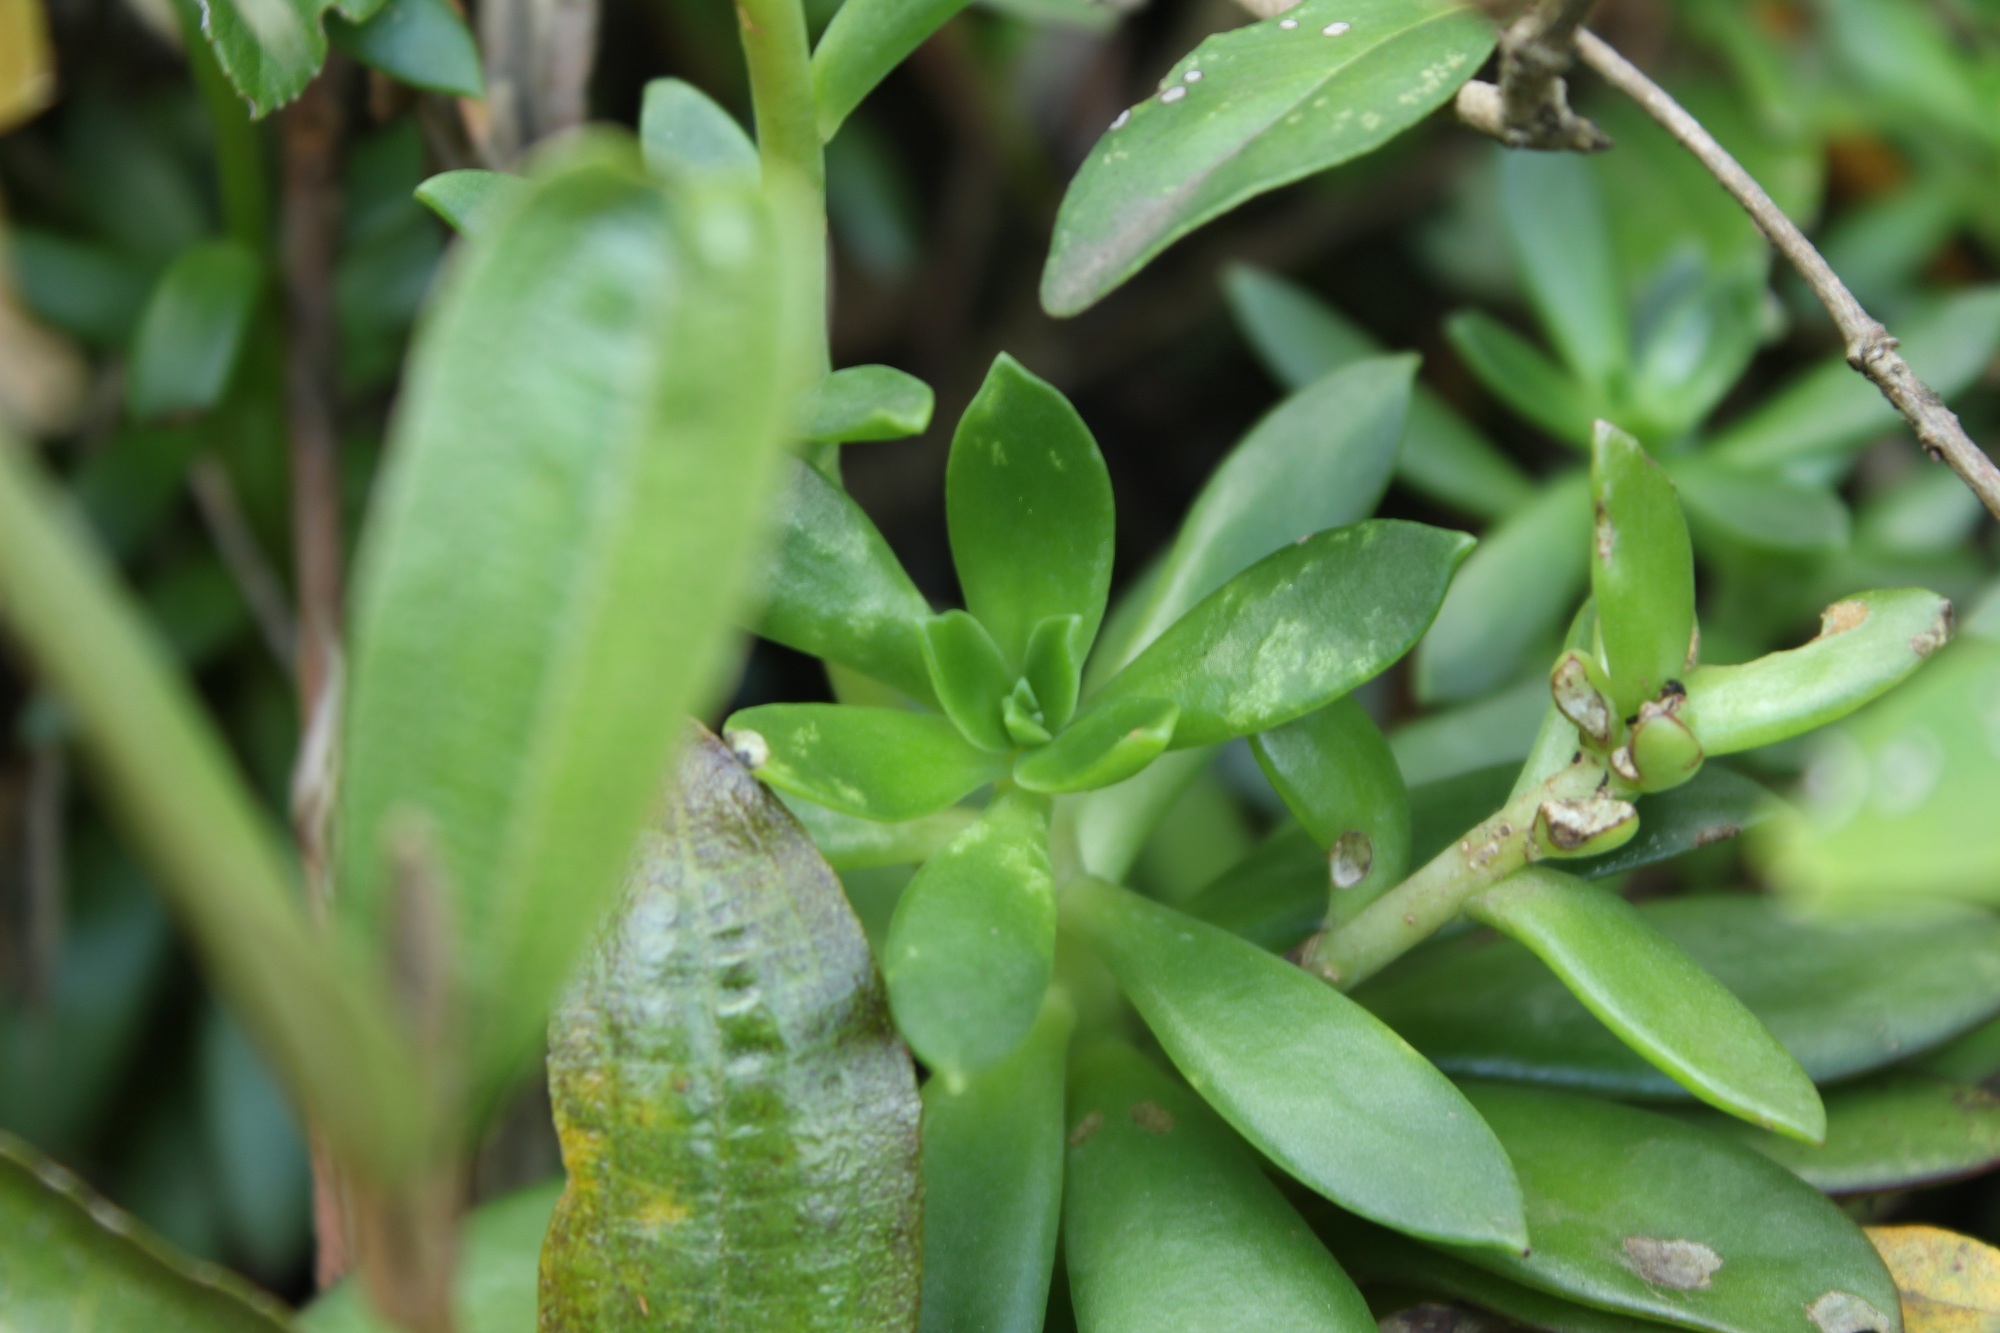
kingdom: Plantae
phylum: Tracheophyta
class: Magnoliopsida
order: Saxifragales
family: Crassulaceae
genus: Echeveria
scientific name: Echeveria bicolor
